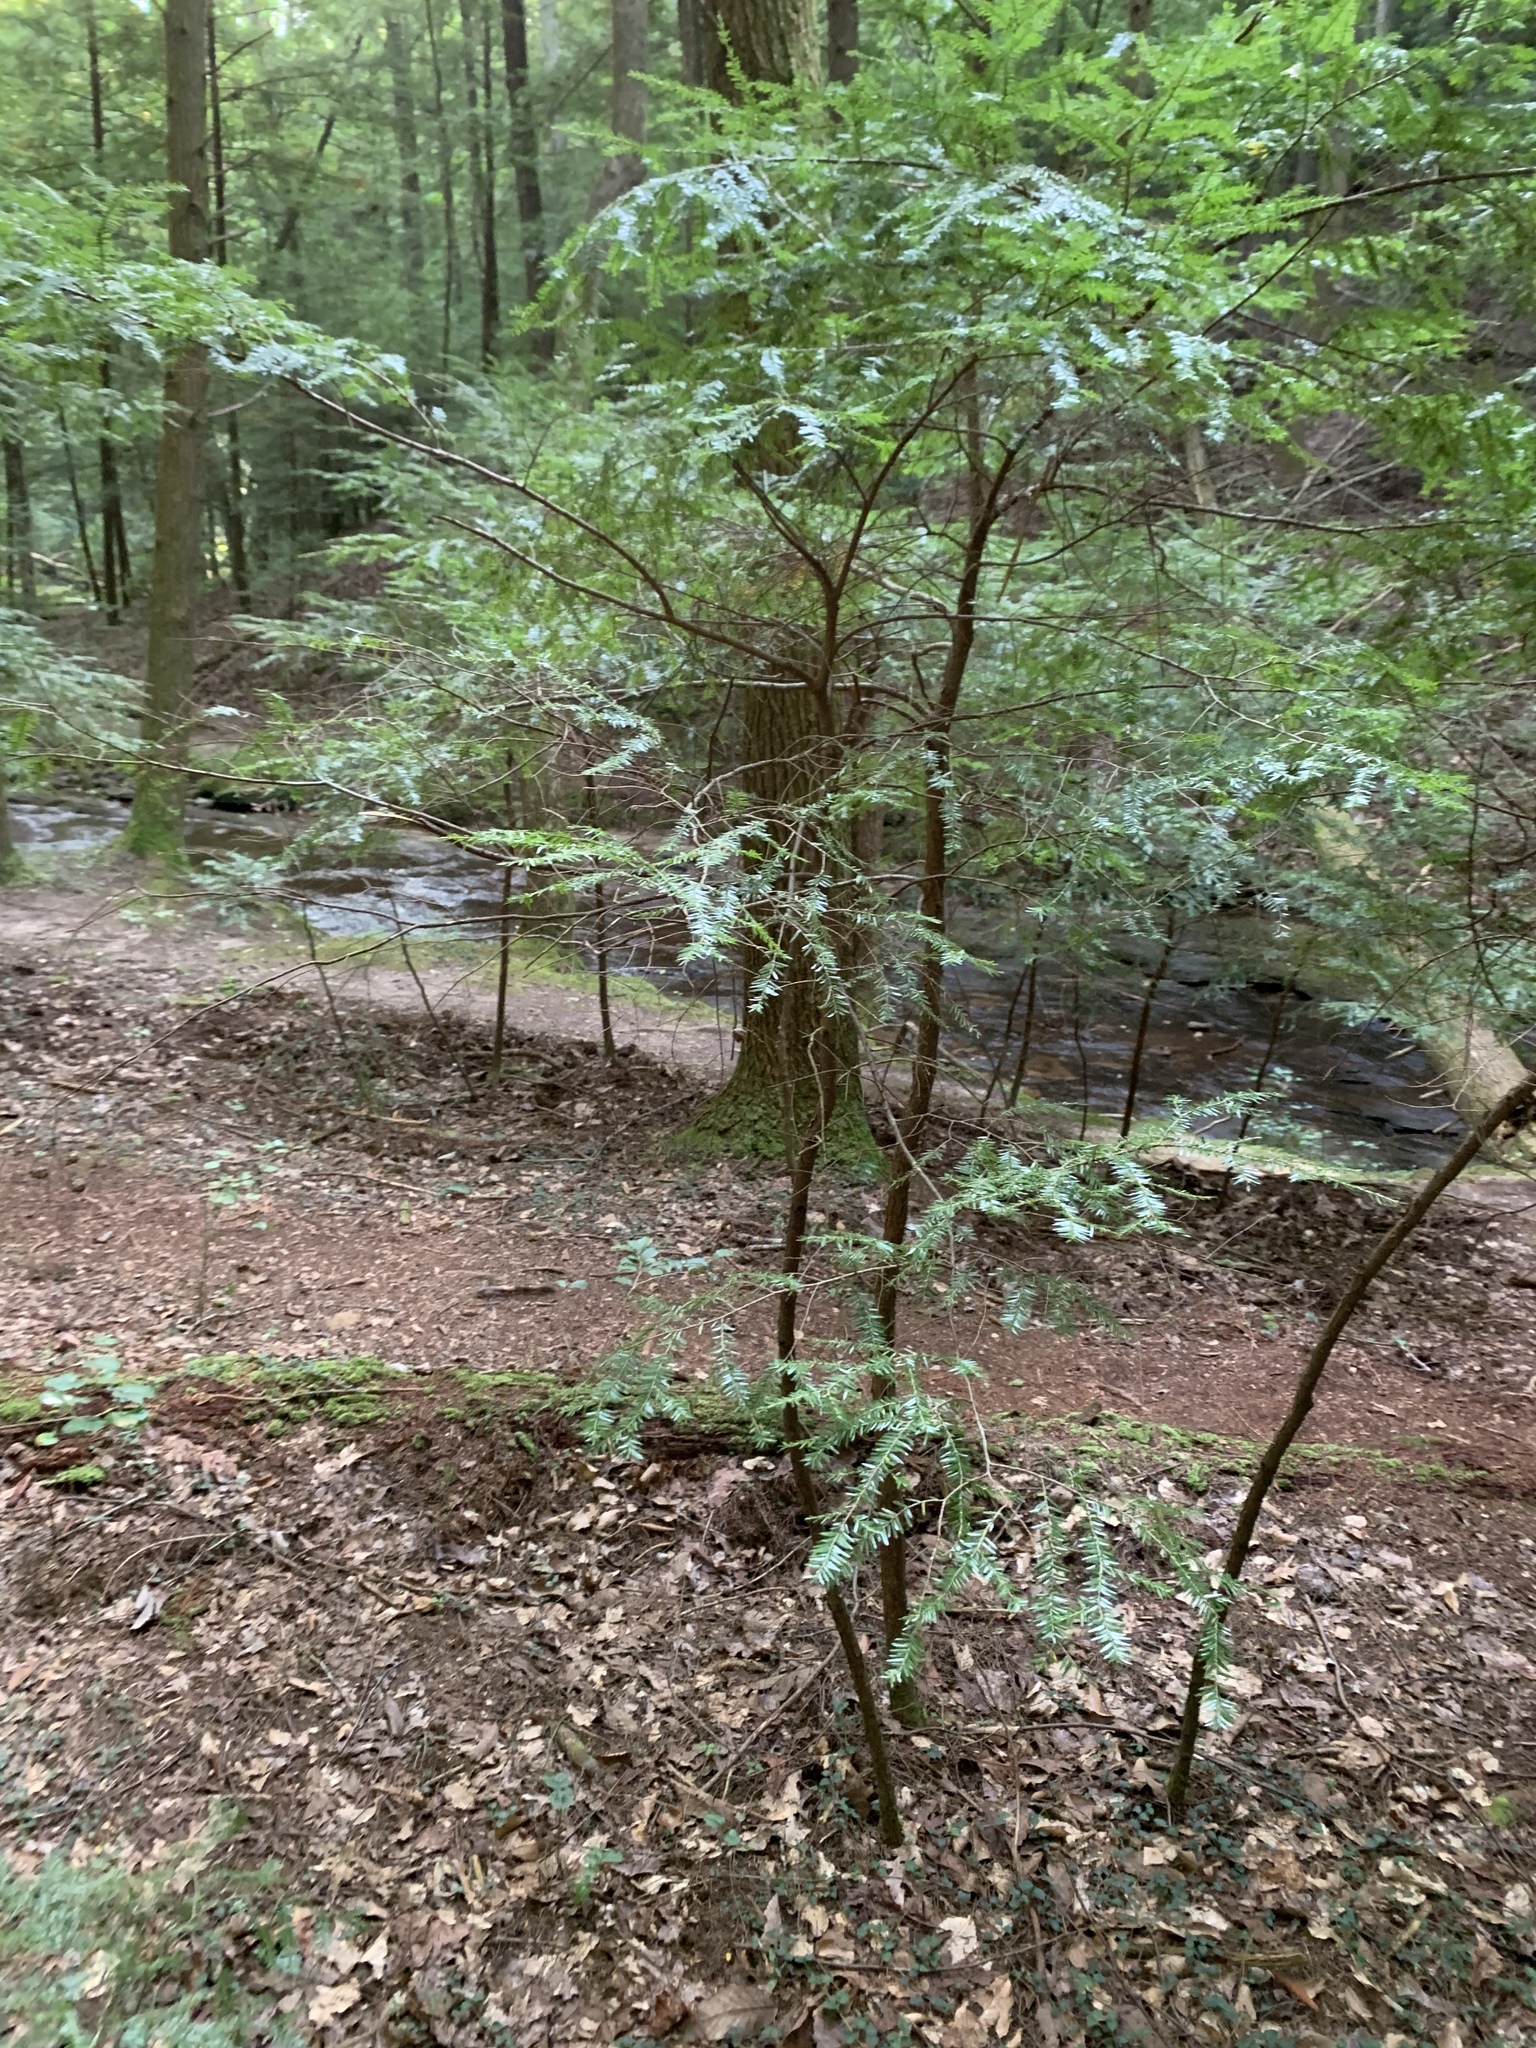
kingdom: Plantae
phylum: Tracheophyta
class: Pinopsida
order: Pinales
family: Pinaceae
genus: Tsuga
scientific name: Tsuga canadensis
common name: Eastern hemlock
